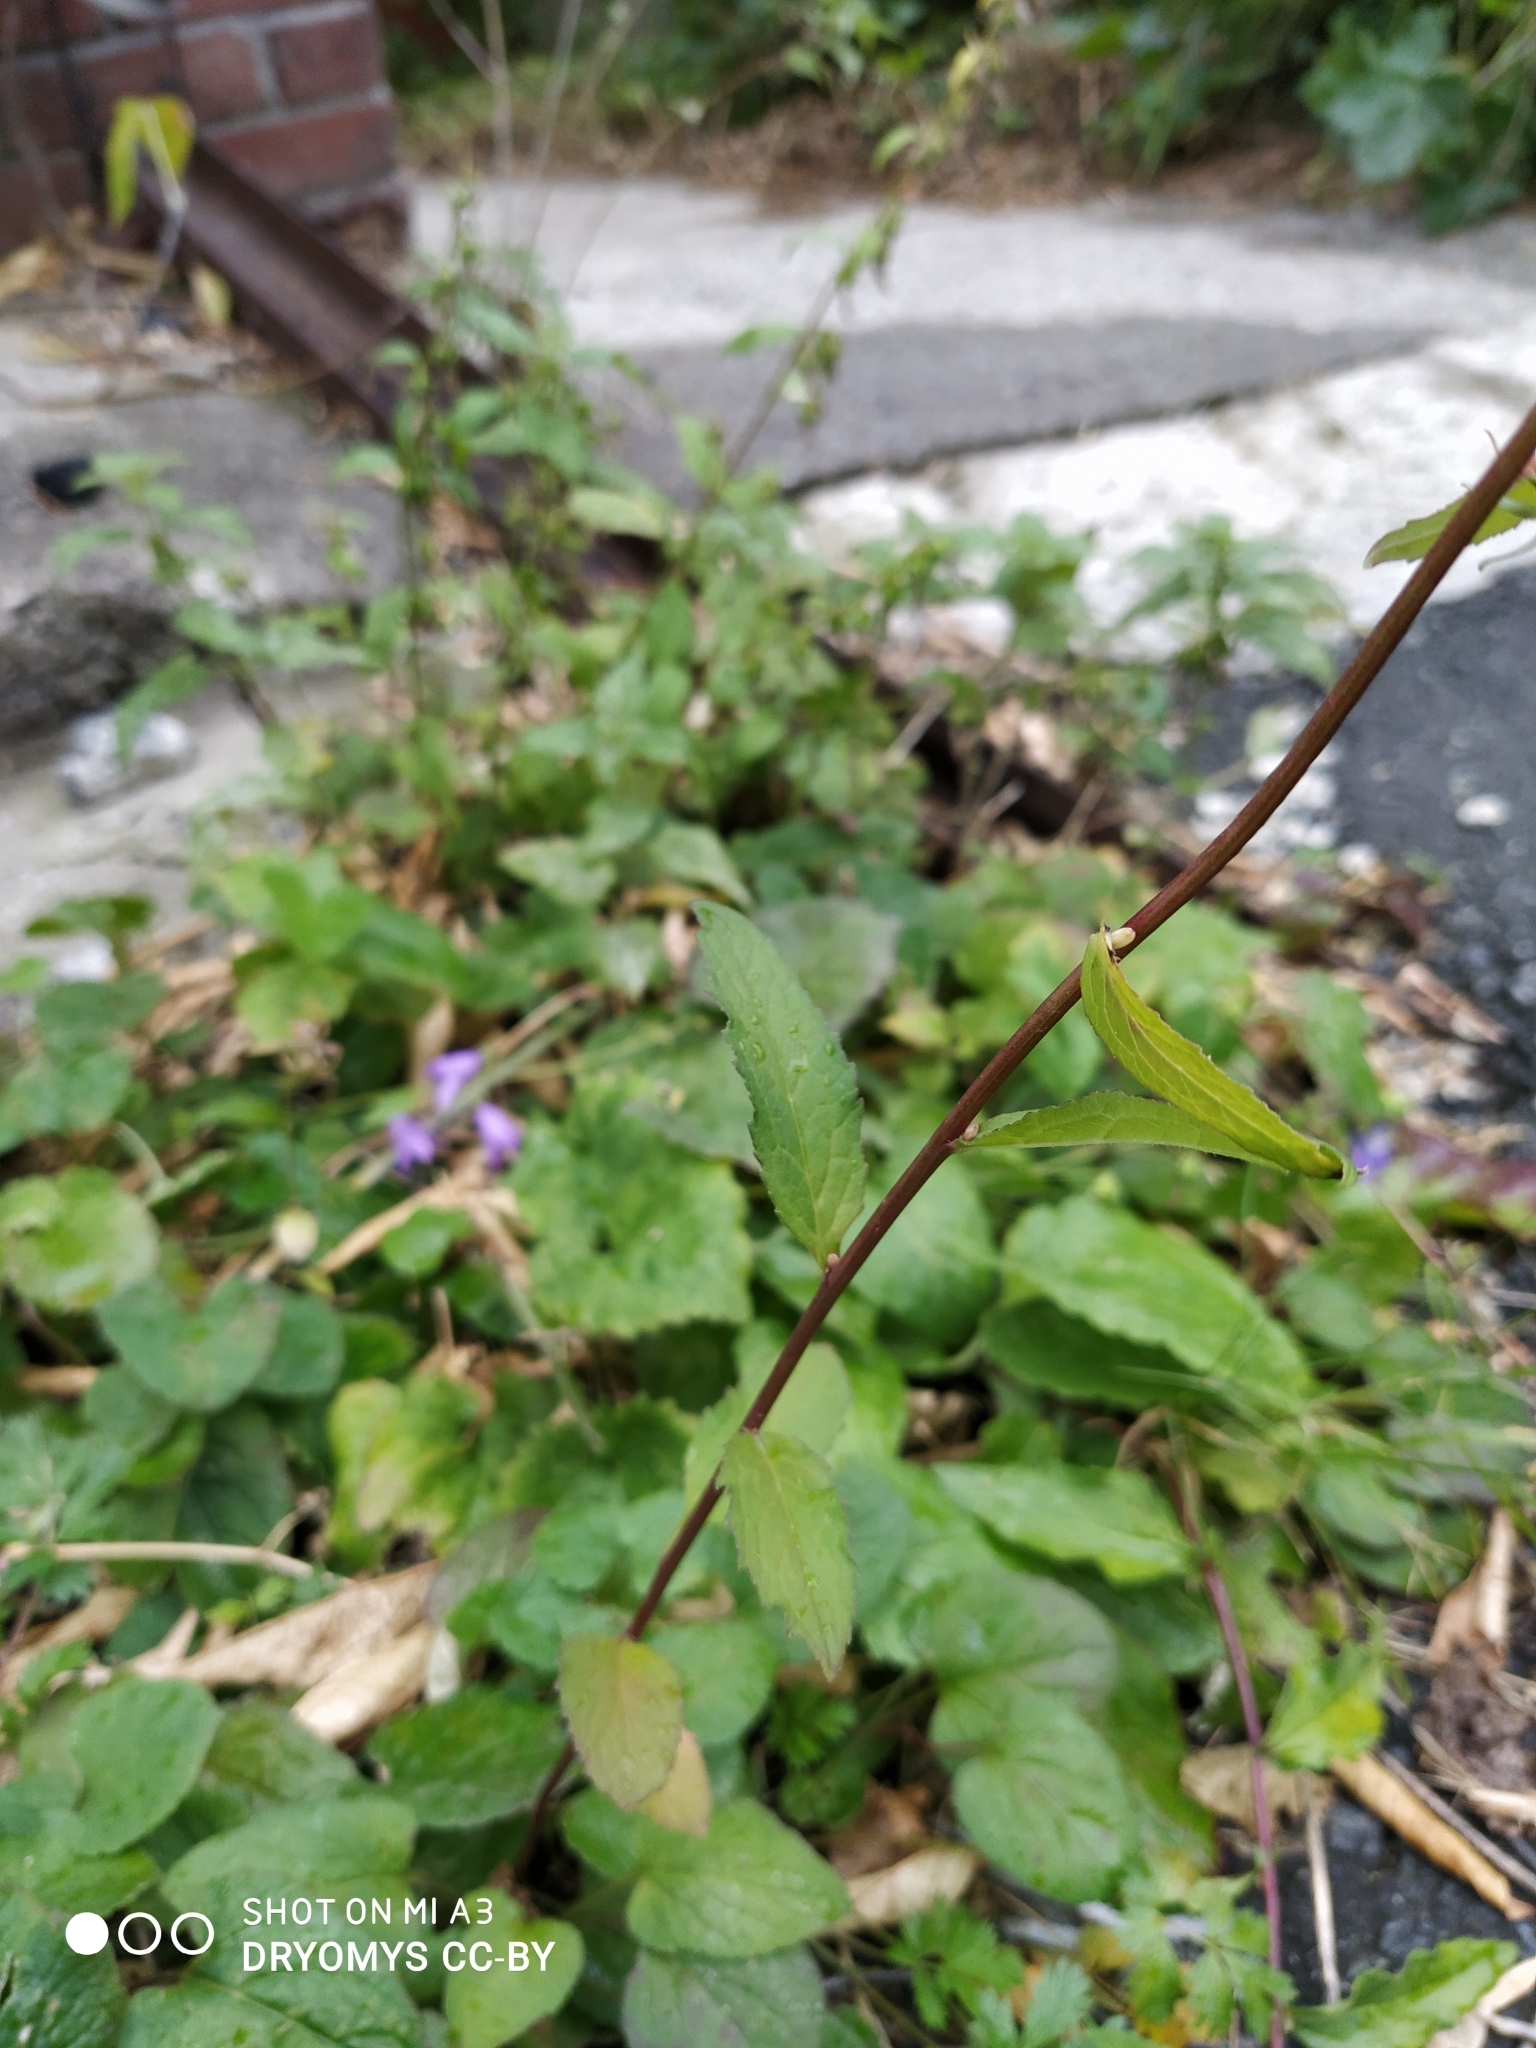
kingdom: Plantae
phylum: Tracheophyta
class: Magnoliopsida
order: Asterales
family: Campanulaceae
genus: Campanula
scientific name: Campanula rapunculoides
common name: Creeping bellflower
